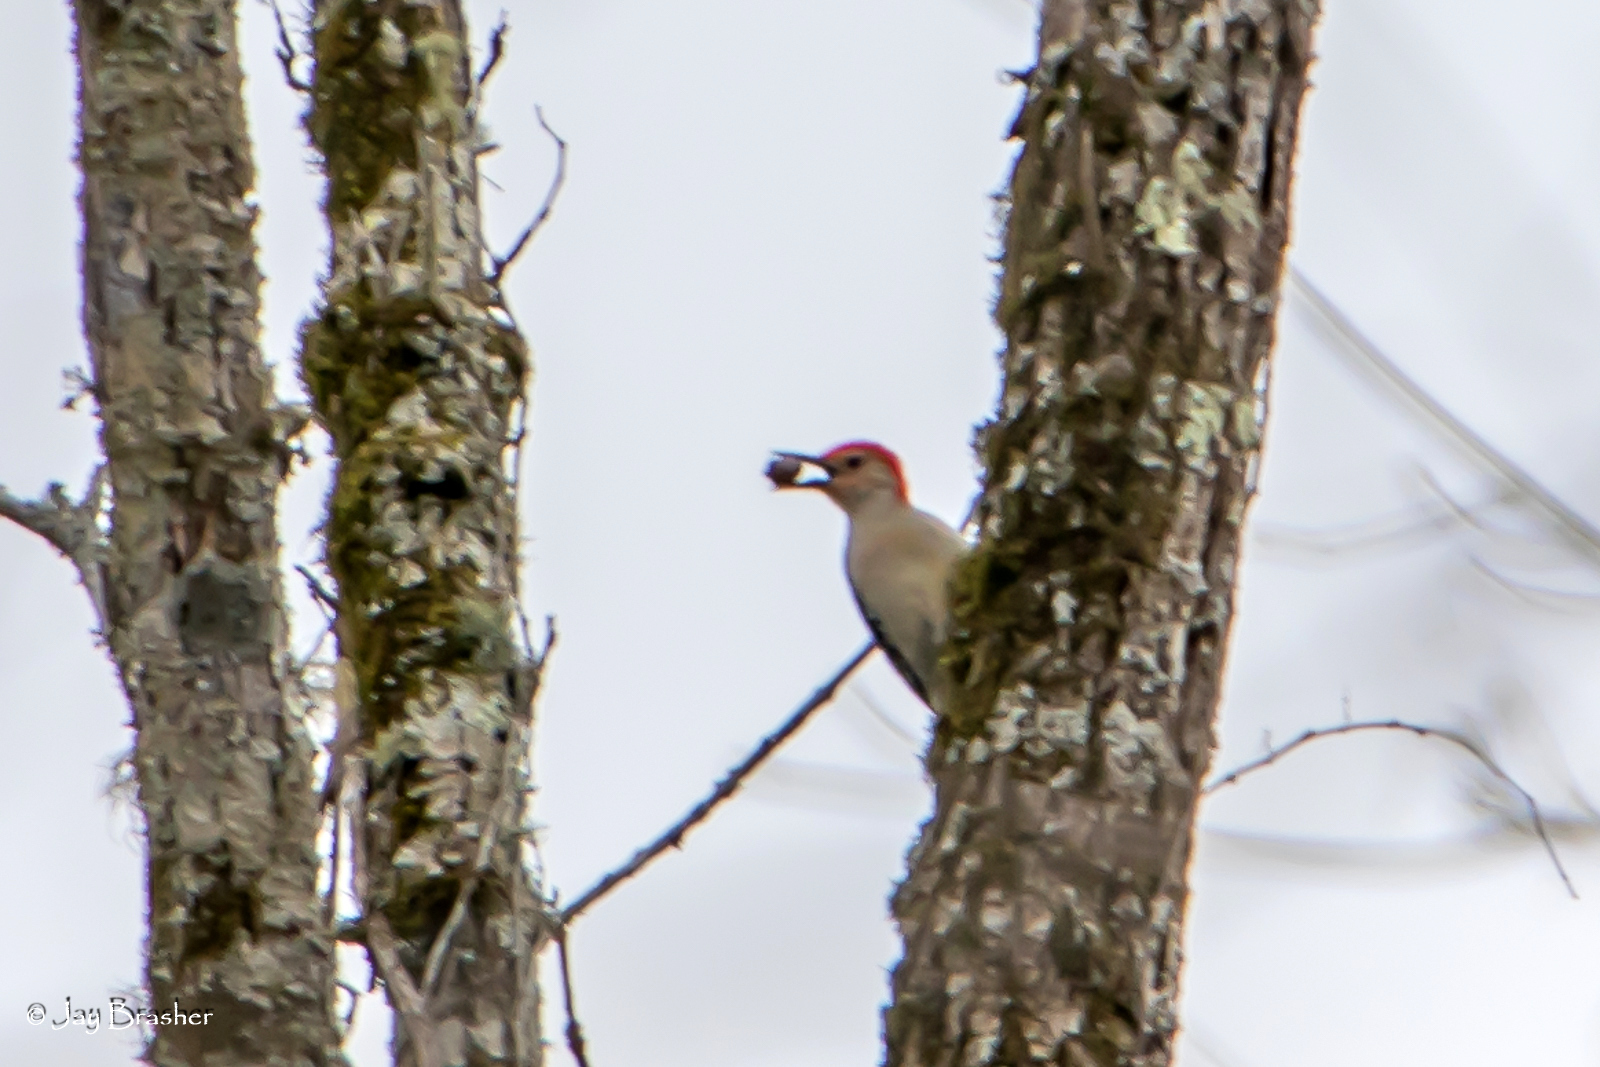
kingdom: Animalia
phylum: Chordata
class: Aves
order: Piciformes
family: Picidae
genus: Melanerpes
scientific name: Melanerpes carolinus
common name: Red-bellied woodpecker
